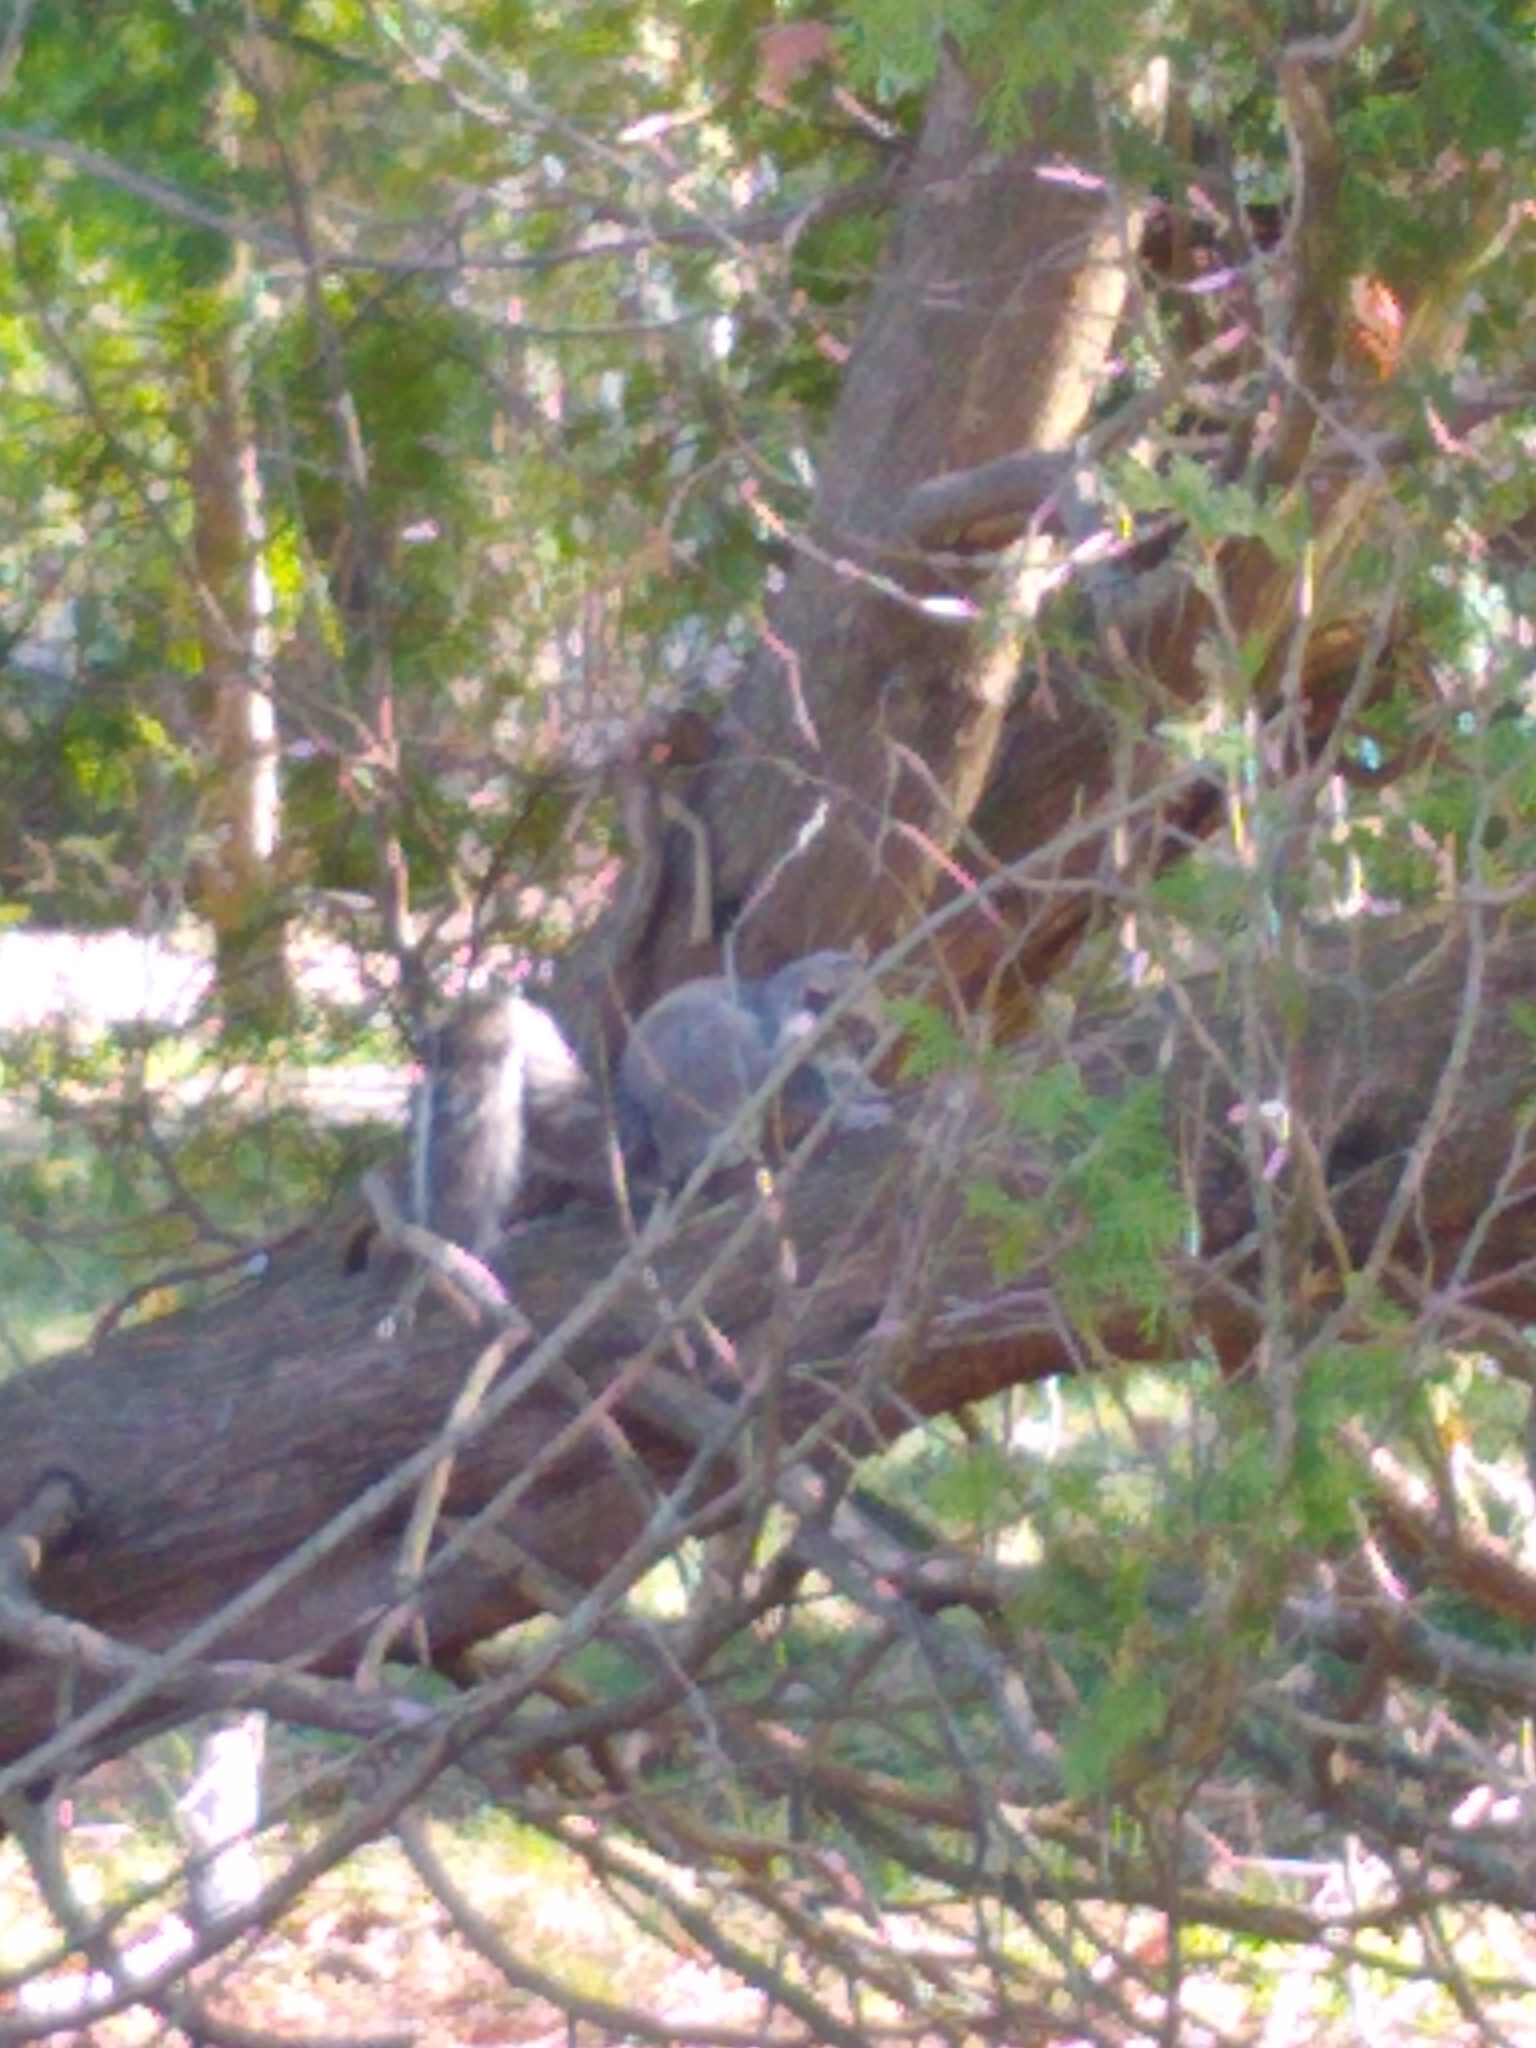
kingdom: Animalia
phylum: Chordata
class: Mammalia
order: Rodentia
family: Sciuridae
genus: Sciurus
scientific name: Sciurus carolinensis
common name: Eastern gray squirrel
